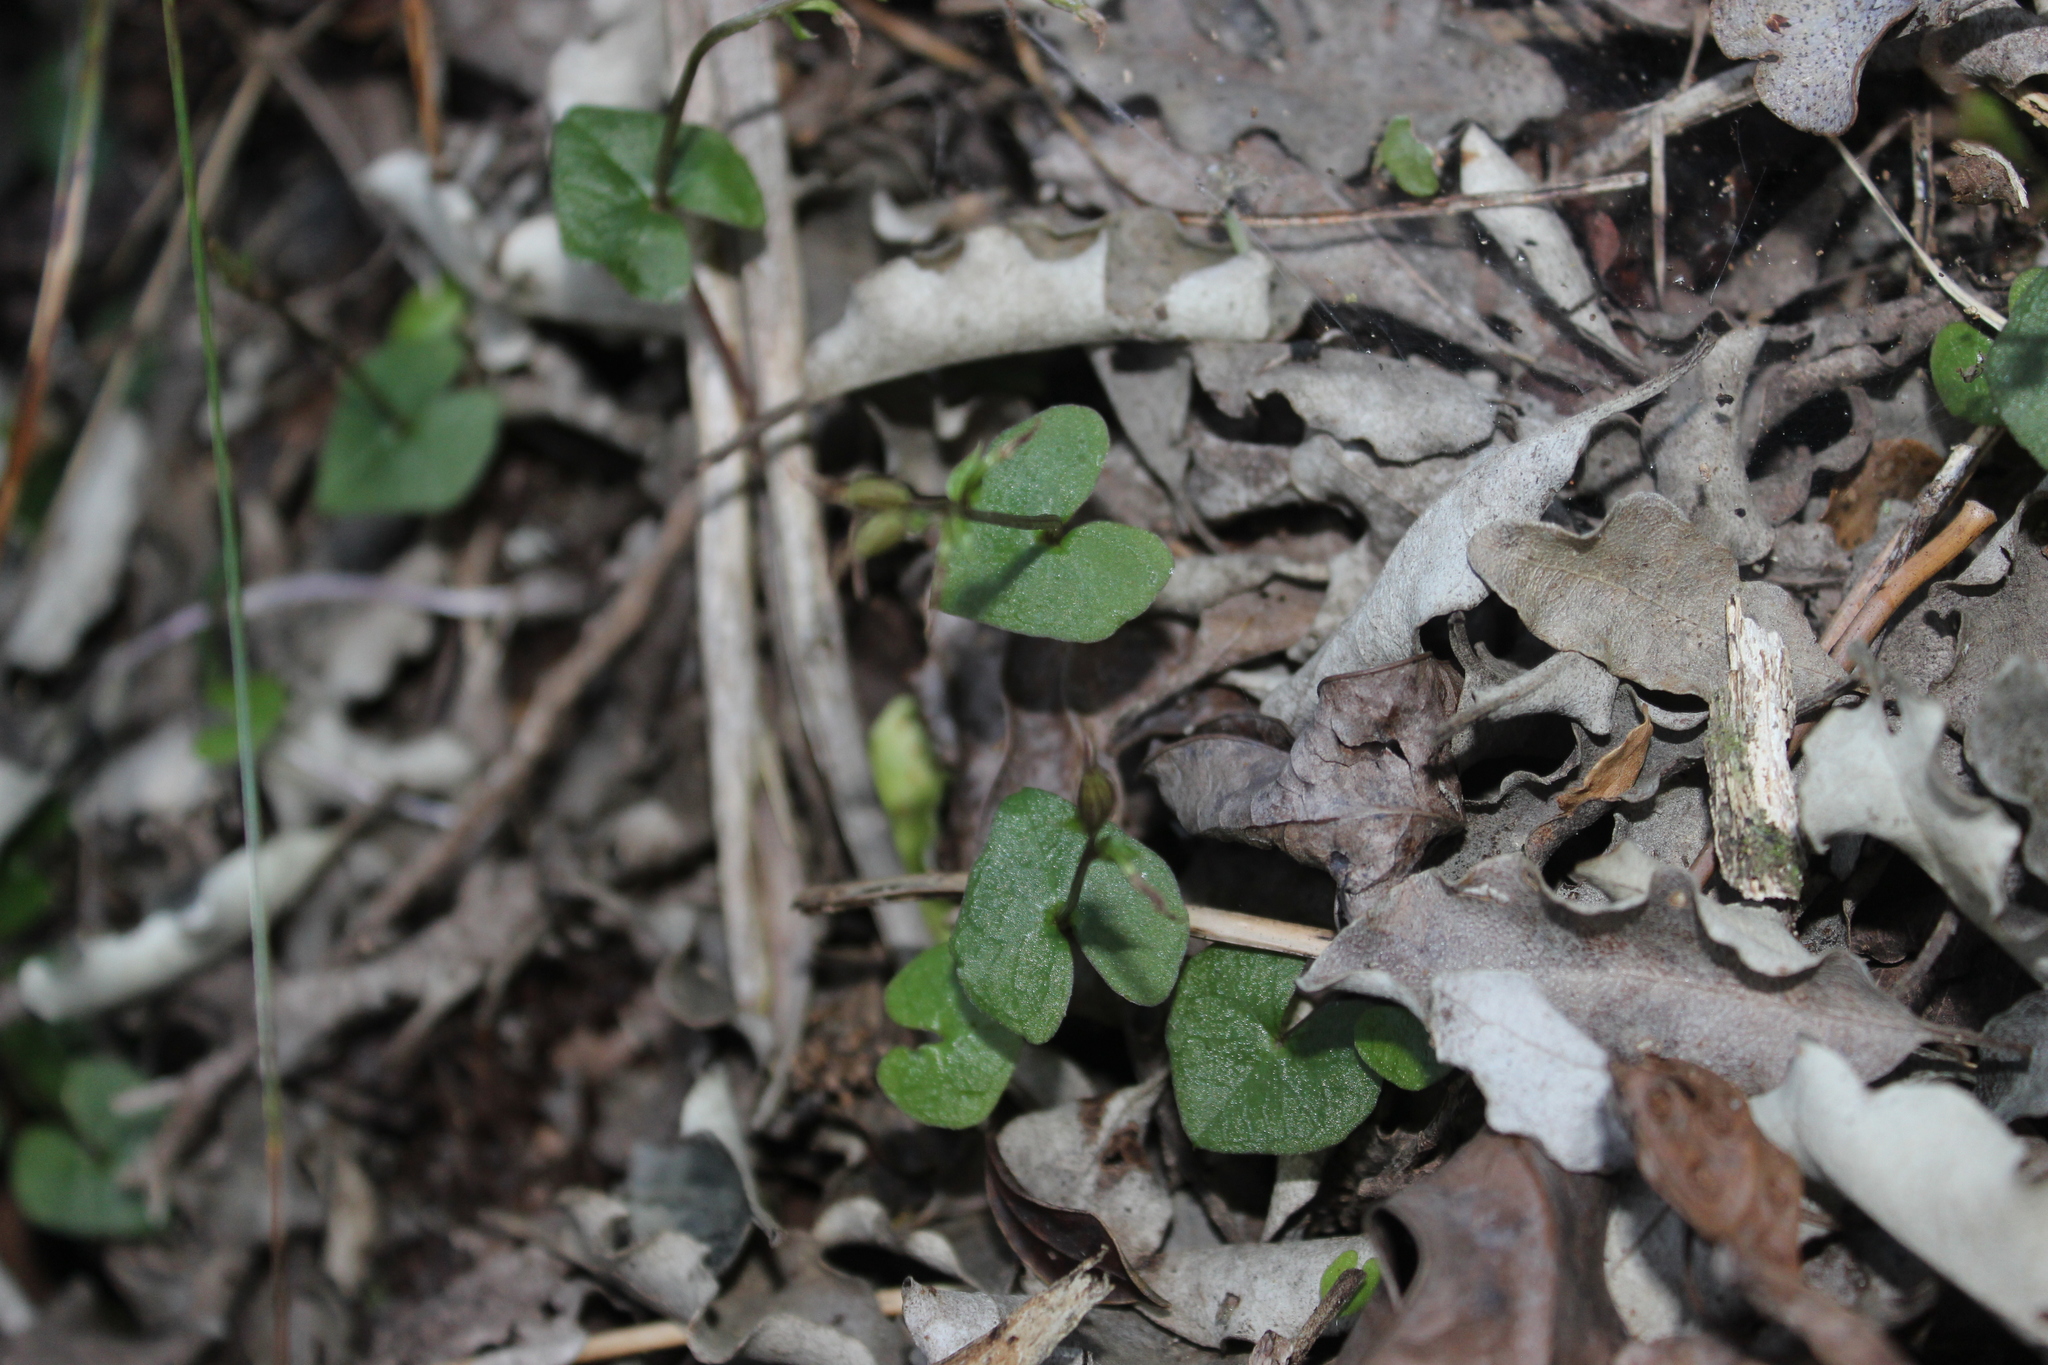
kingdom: Plantae
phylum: Tracheophyta
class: Liliopsida
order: Asparagales
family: Orchidaceae
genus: Acianthus
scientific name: Acianthus sinclairii
